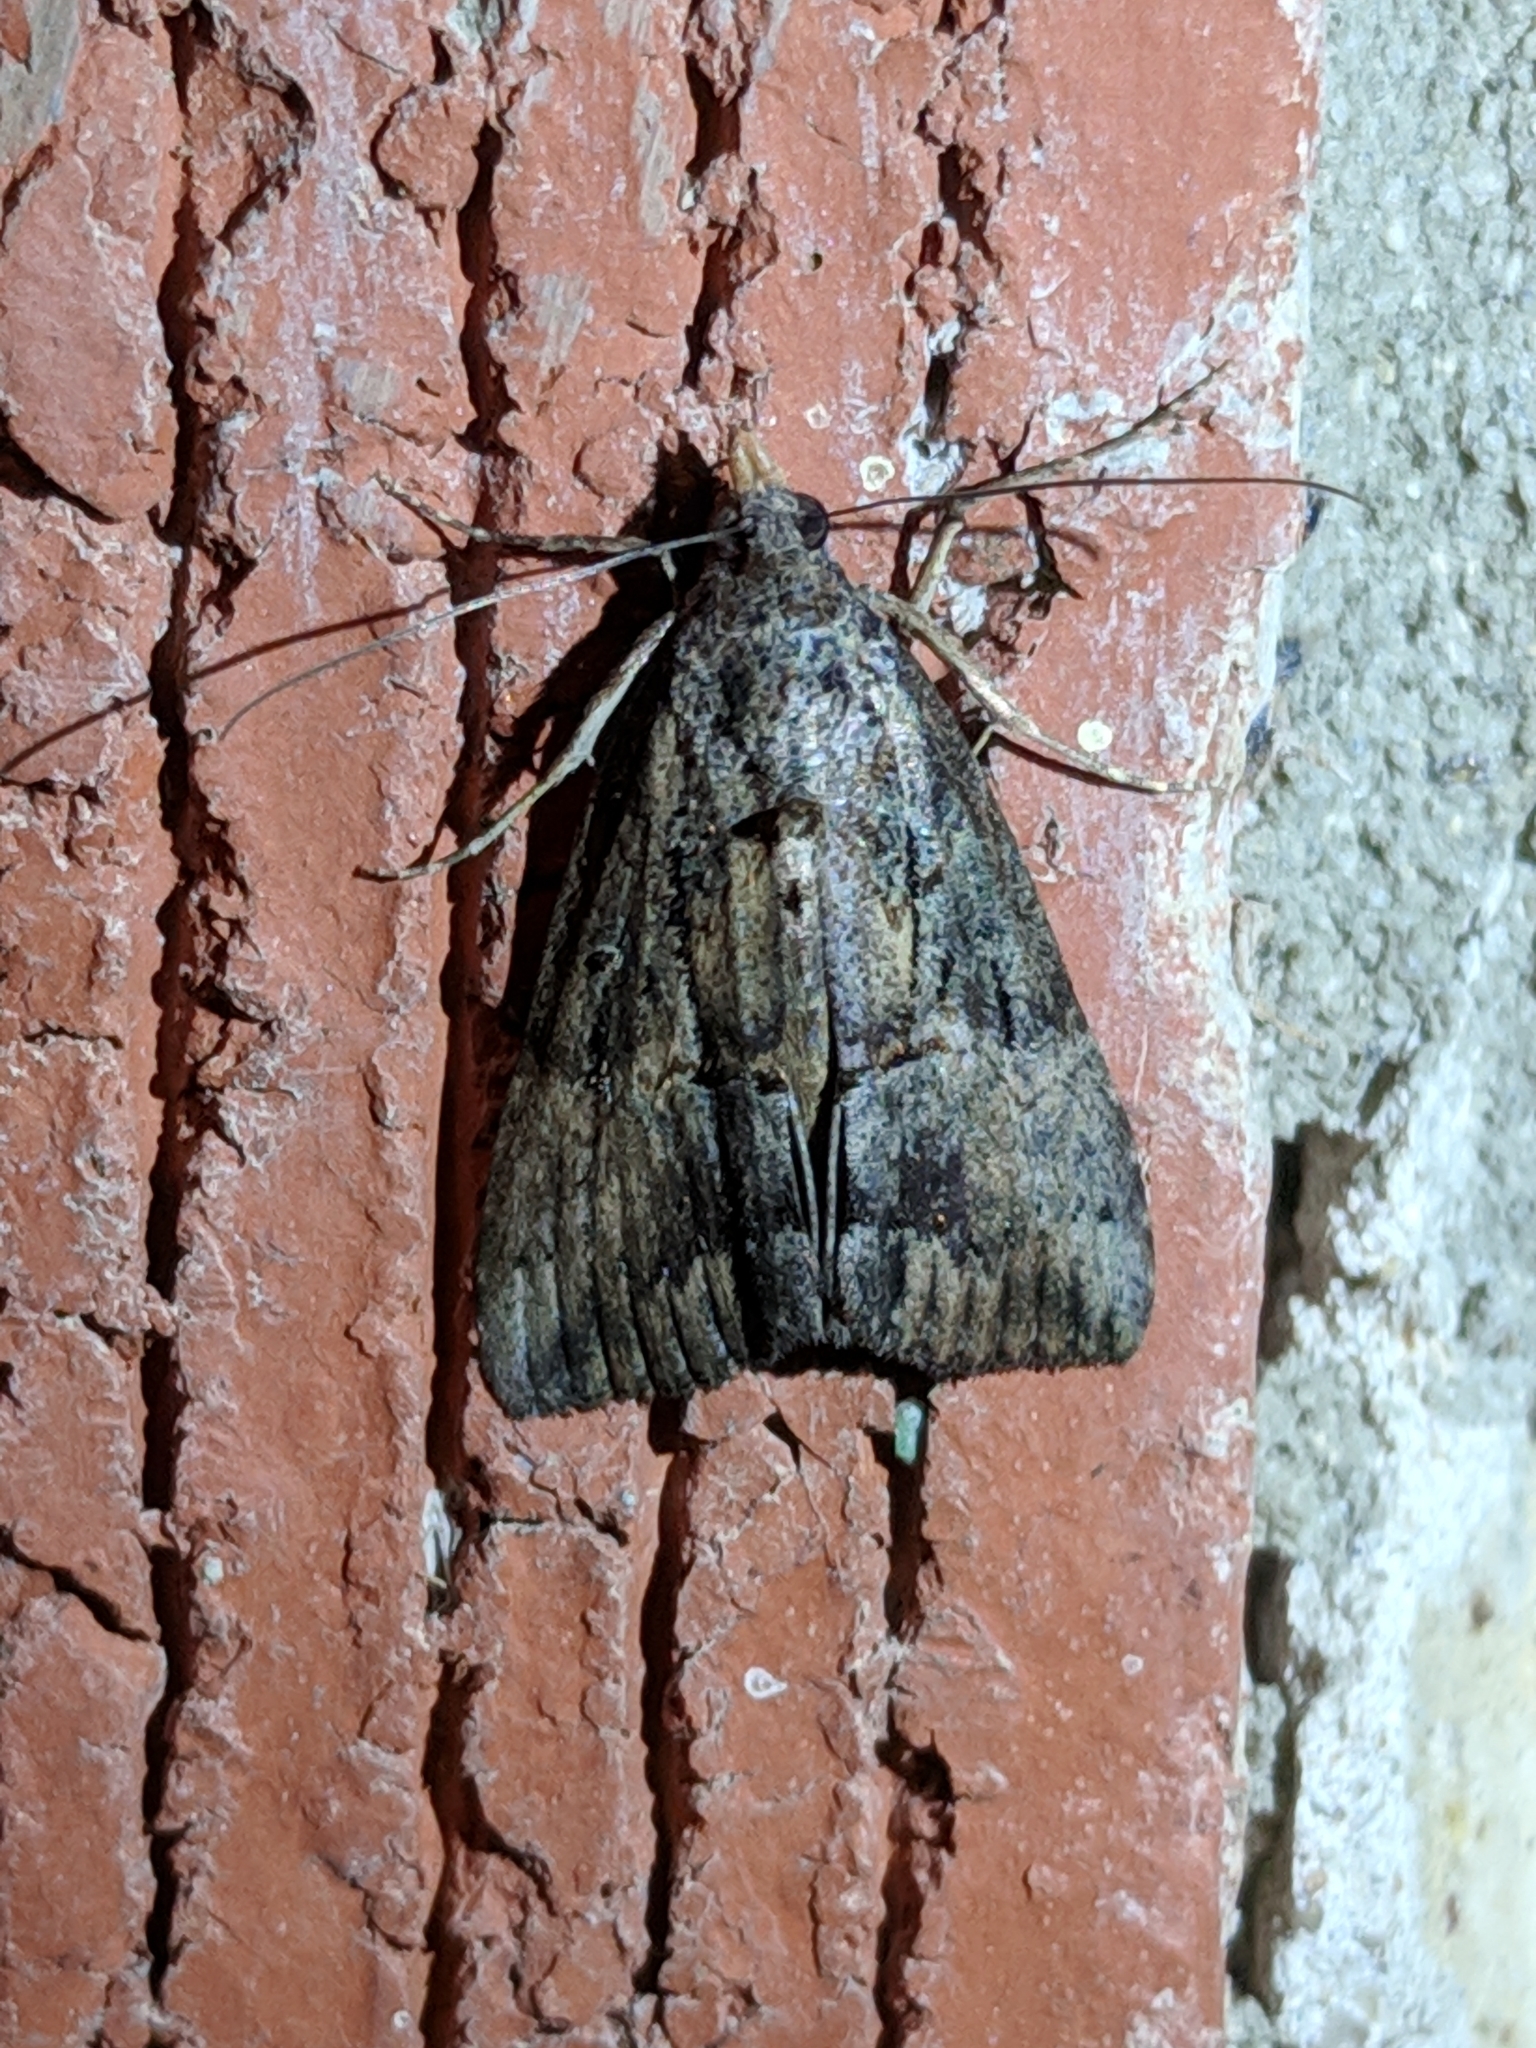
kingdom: Animalia
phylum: Arthropoda
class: Insecta
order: Lepidoptera
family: Erebidae
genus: Hypena
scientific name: Hypena scabra
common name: Green cloverworm
